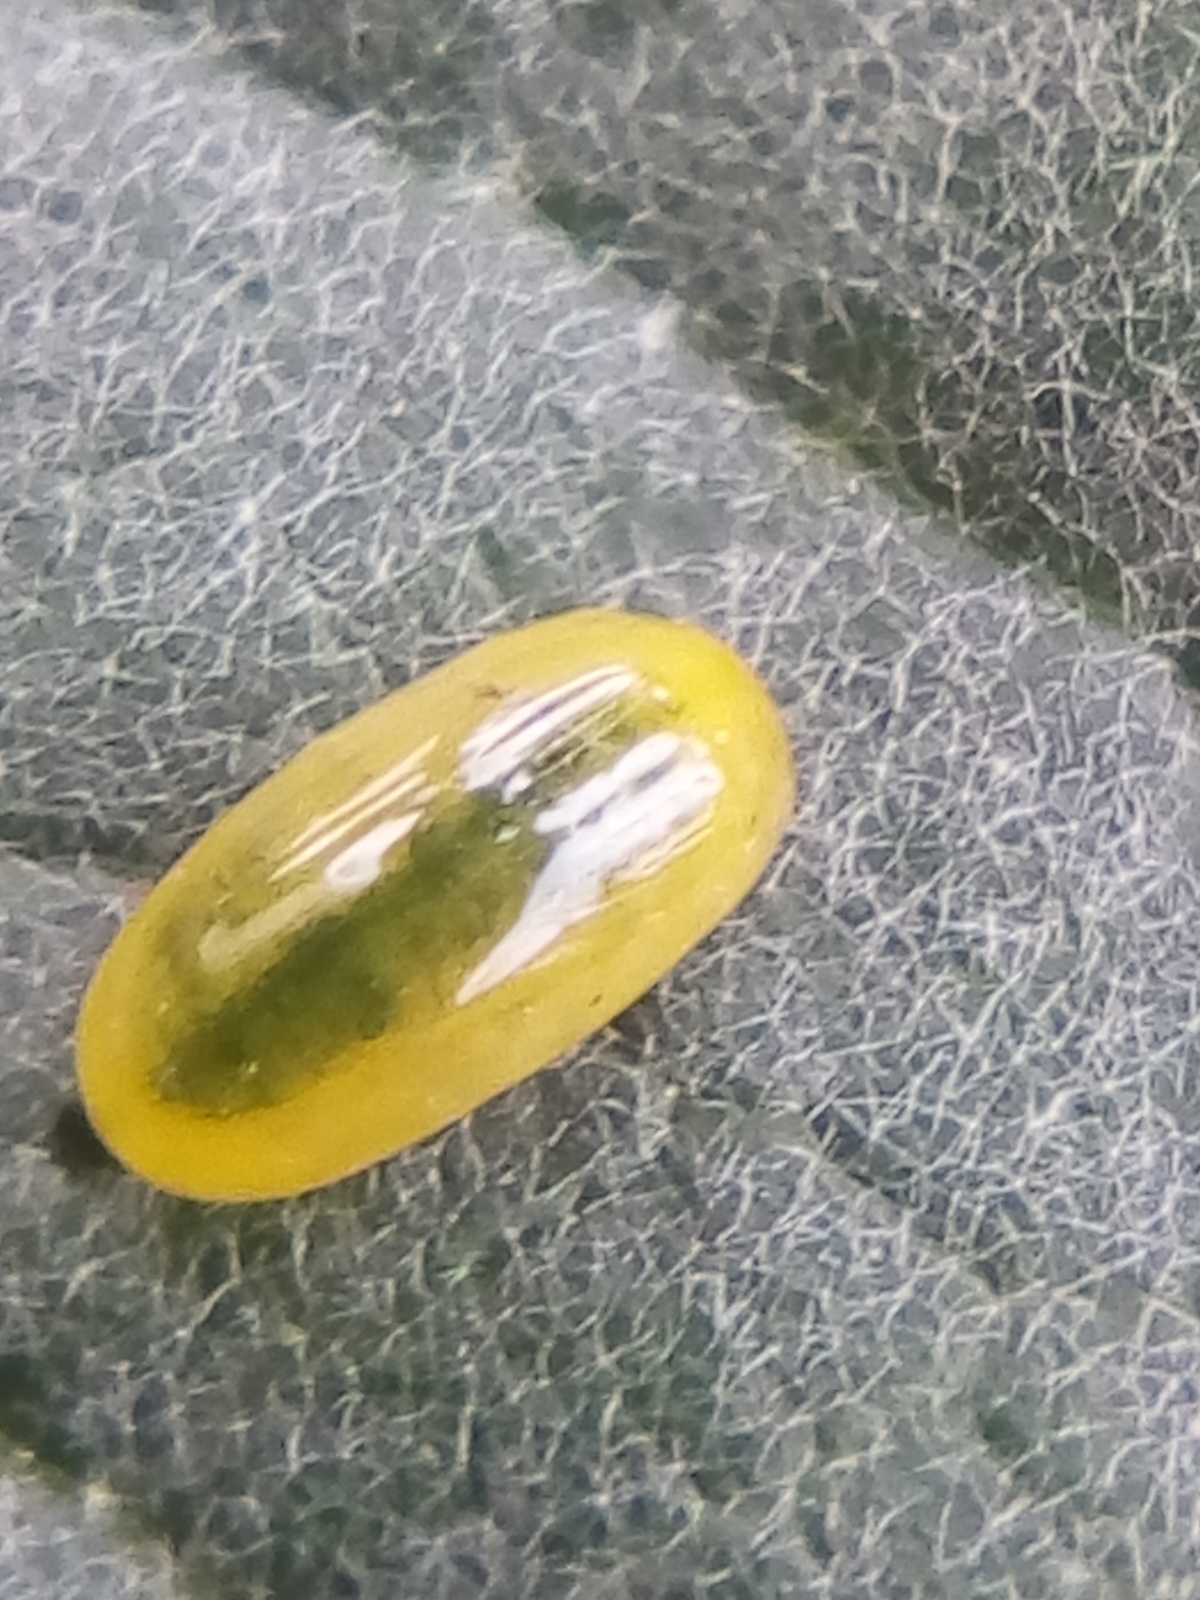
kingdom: Animalia
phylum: Arthropoda
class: Insecta
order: Coleoptera
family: Curculionidae
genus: Cleopus
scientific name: Cleopus japonicus
